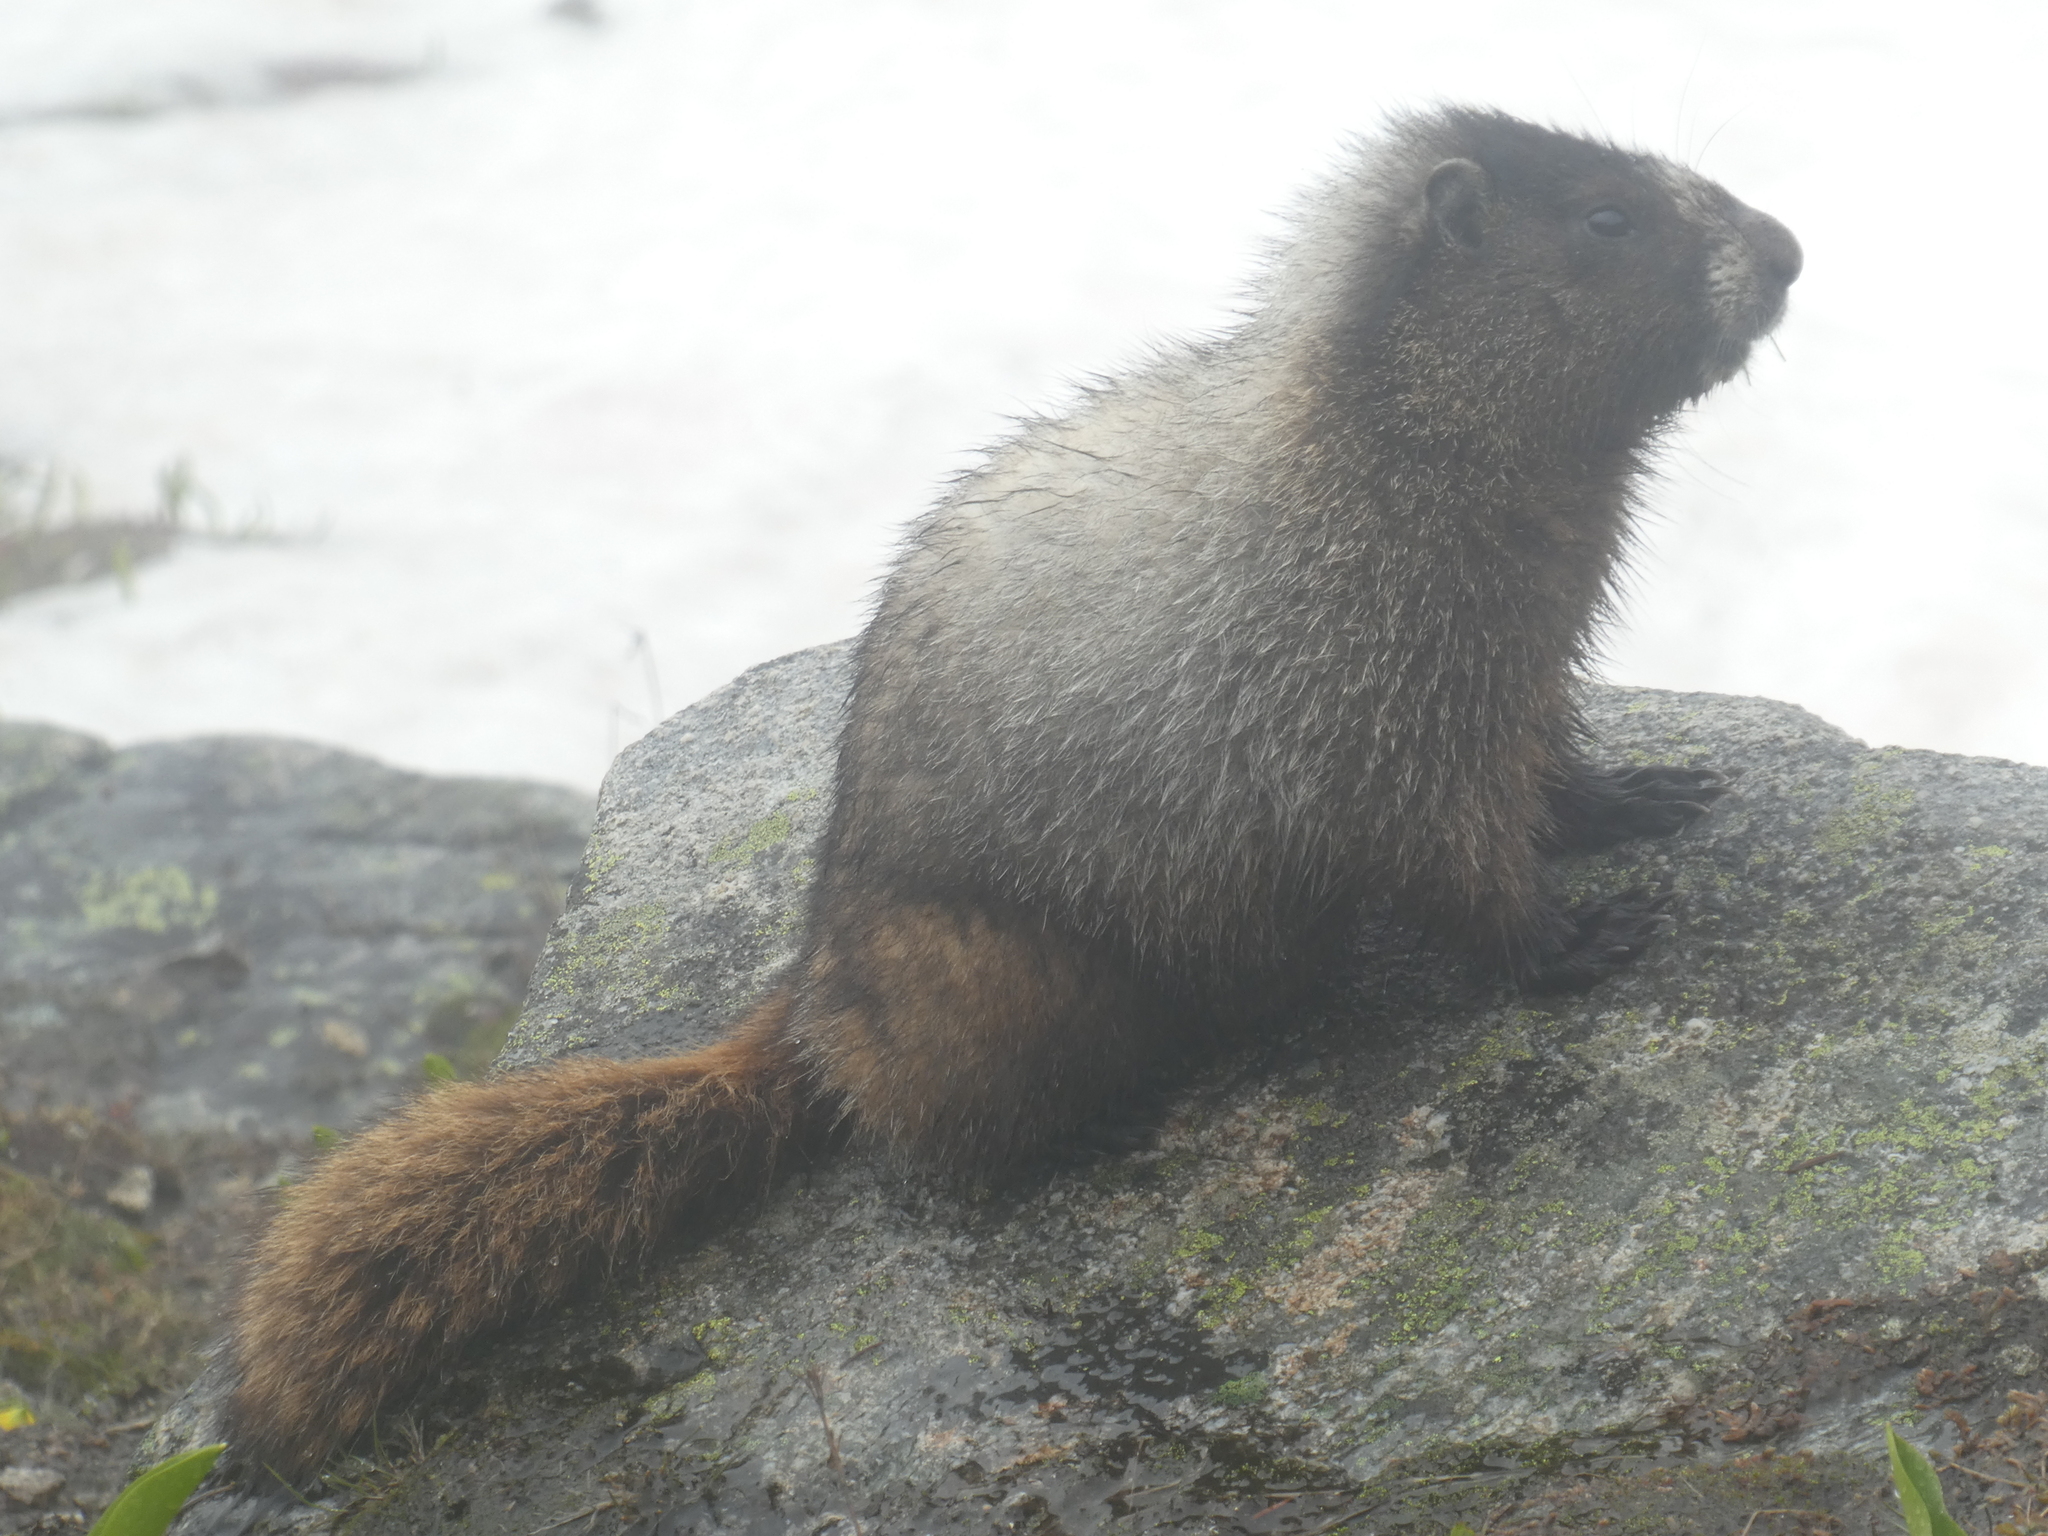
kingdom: Animalia
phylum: Chordata
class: Mammalia
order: Rodentia
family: Sciuridae
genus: Marmota
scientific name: Marmota caligata
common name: Hoary marmot
